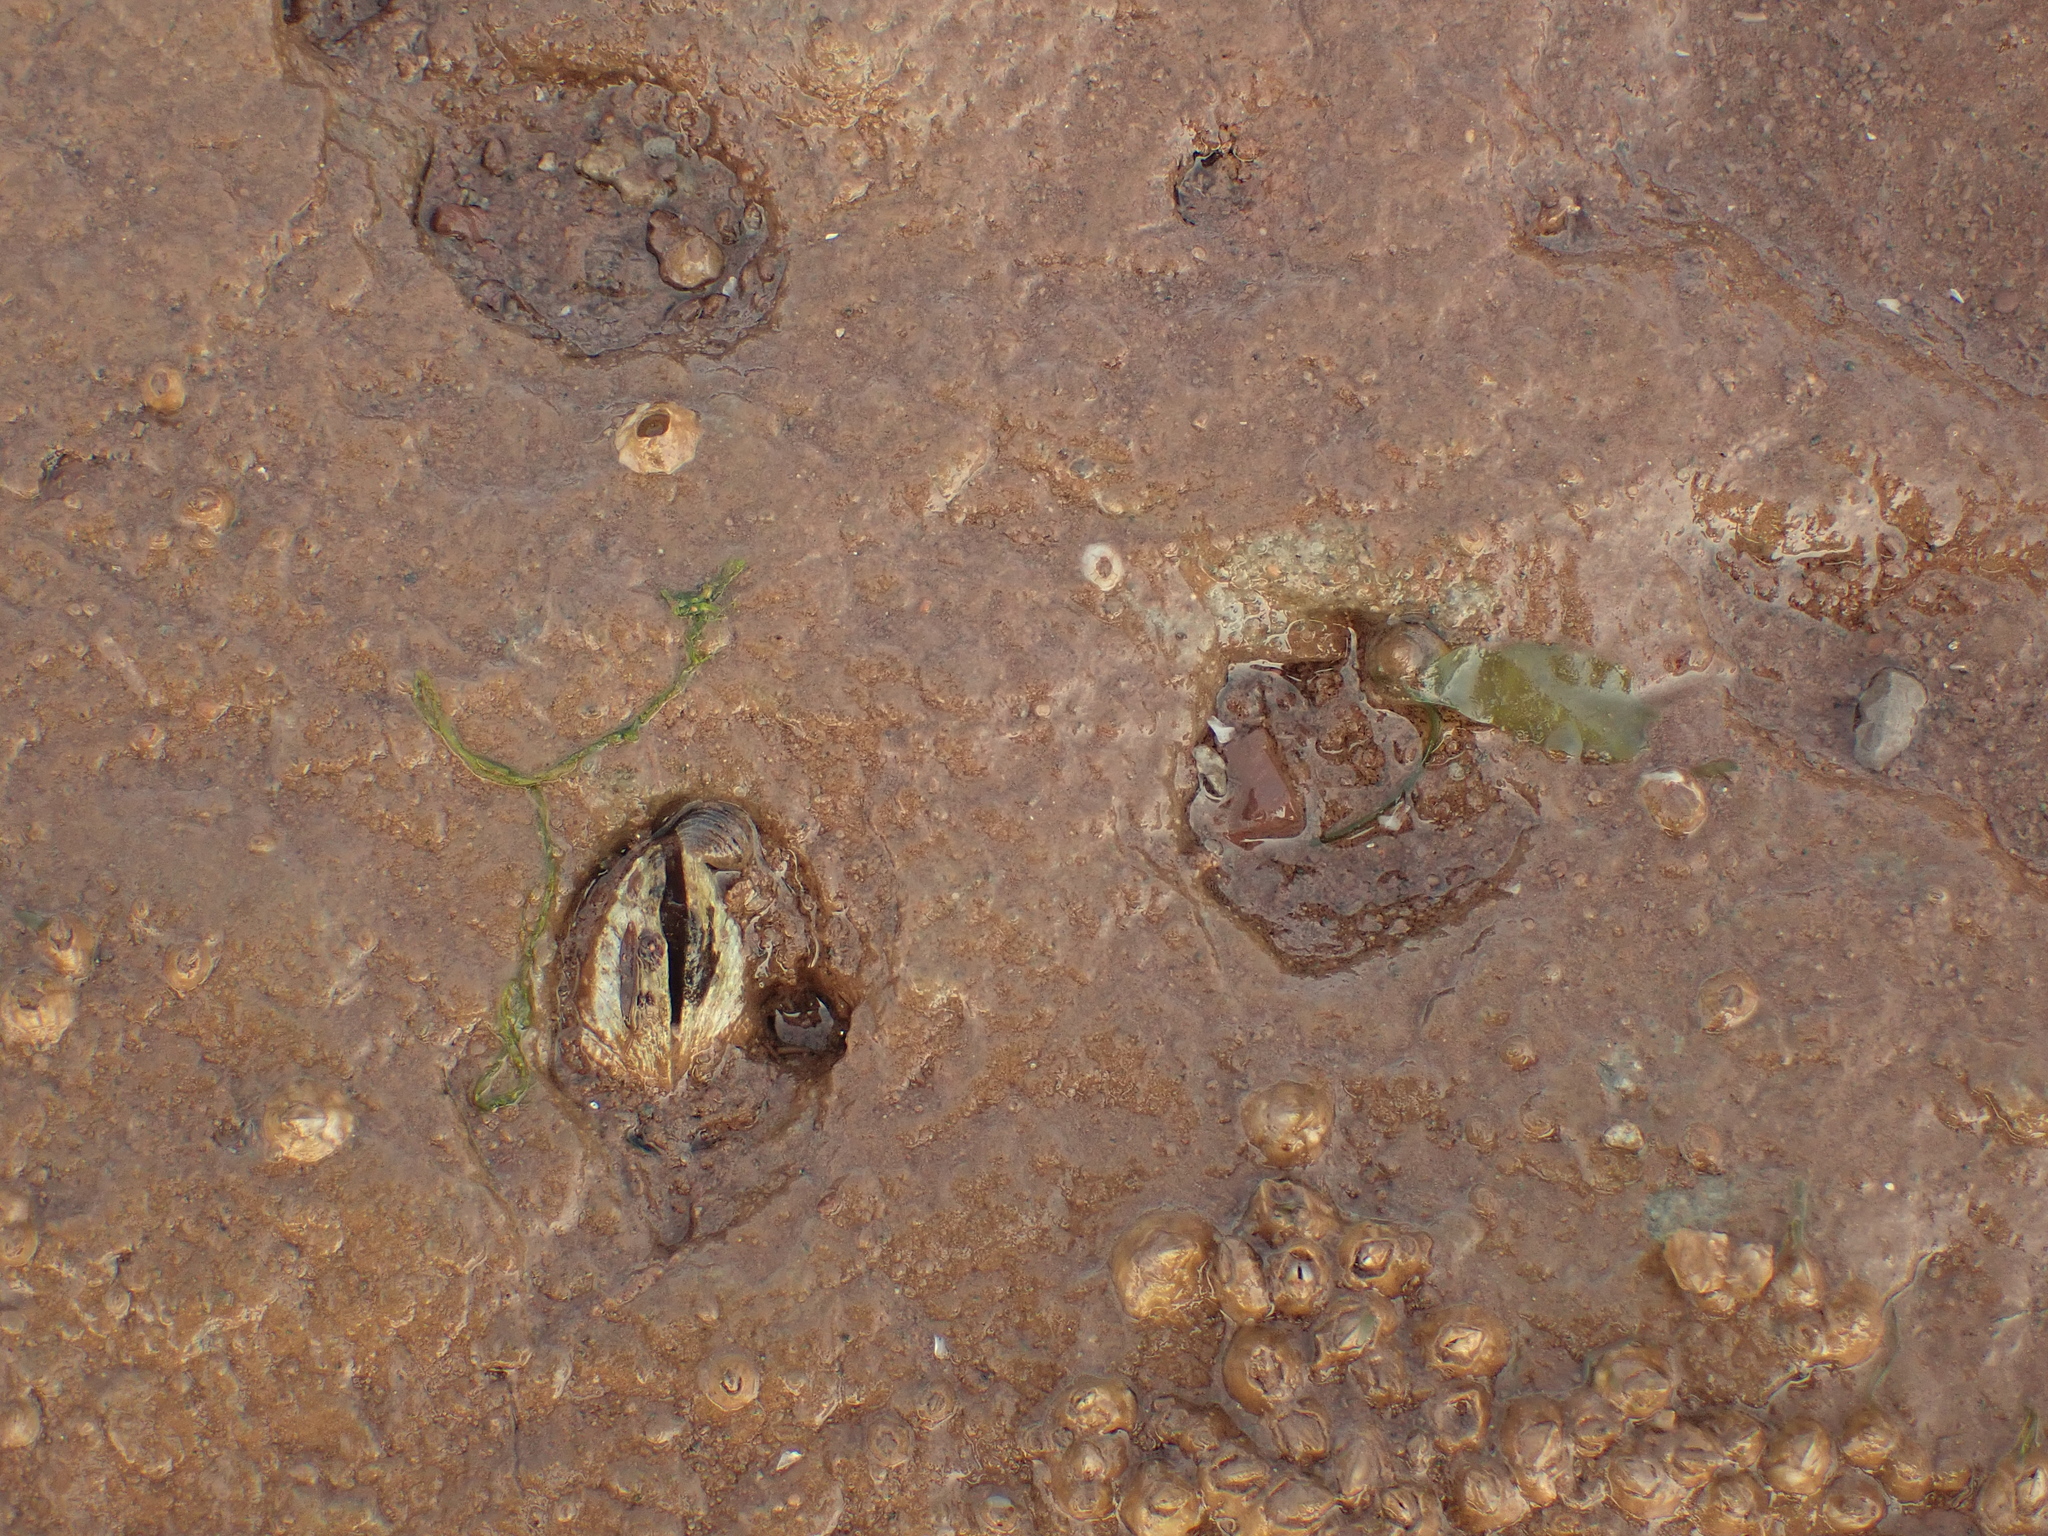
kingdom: Animalia
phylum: Mollusca
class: Bivalvia
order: Venerida
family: Veneridae
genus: Petricolaria
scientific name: Petricolaria pholadiformis
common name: American piddock
